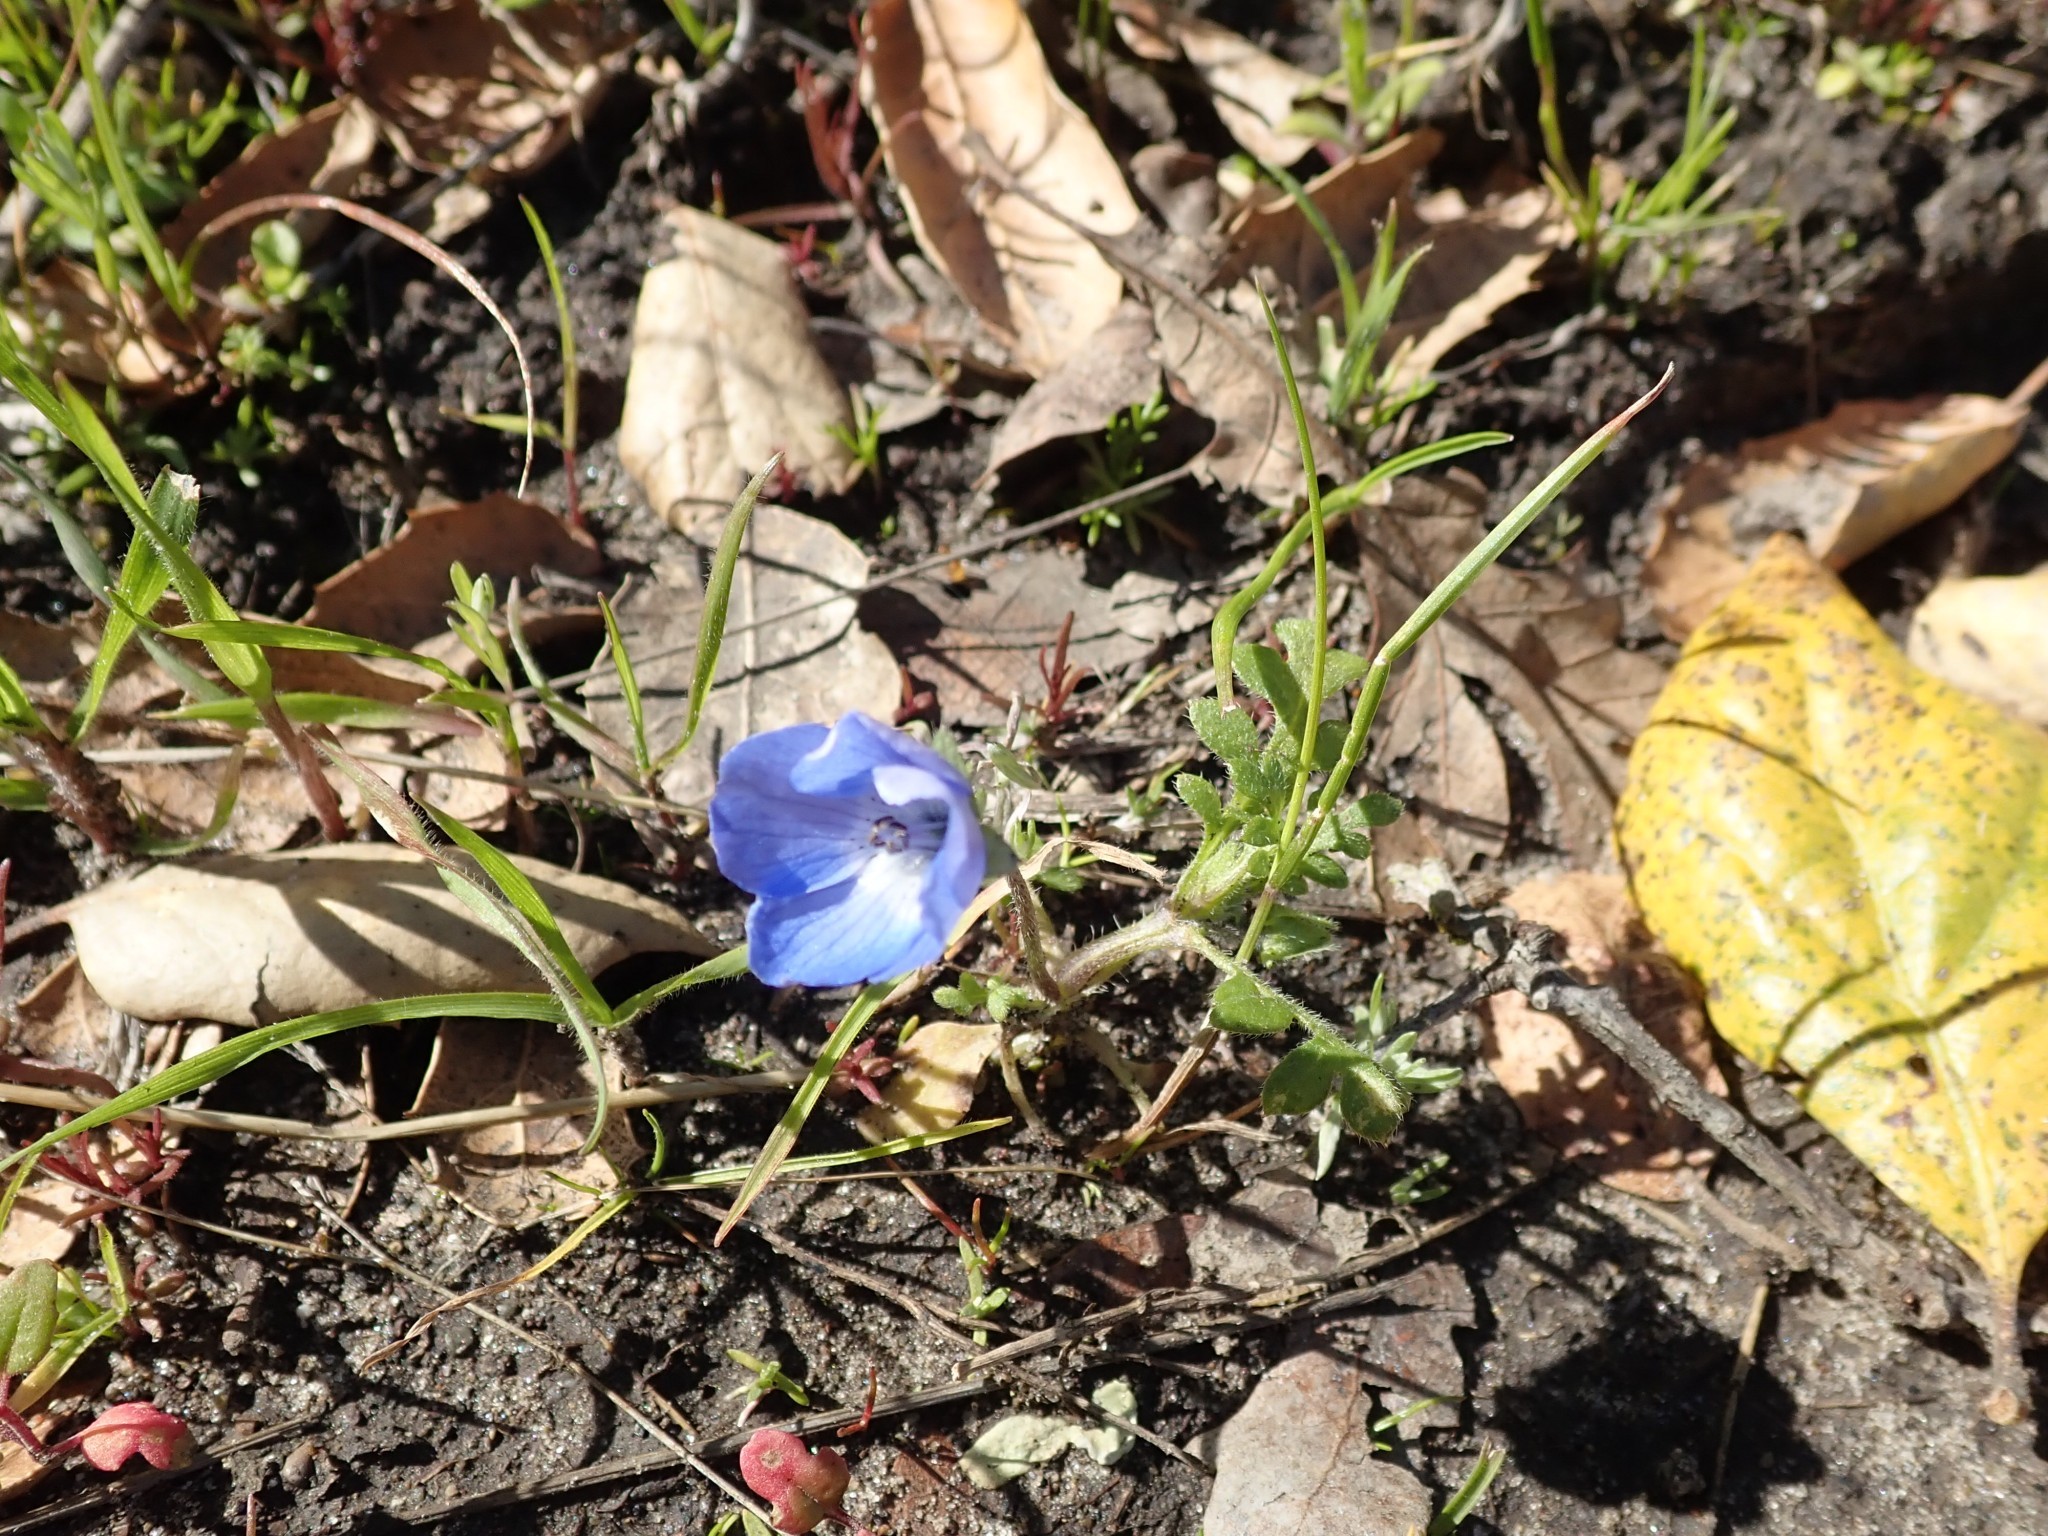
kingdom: Plantae
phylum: Tracheophyta
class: Magnoliopsida
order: Boraginales
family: Hydrophyllaceae
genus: Nemophila
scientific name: Nemophila menziesii
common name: Baby's-blue-eyes
